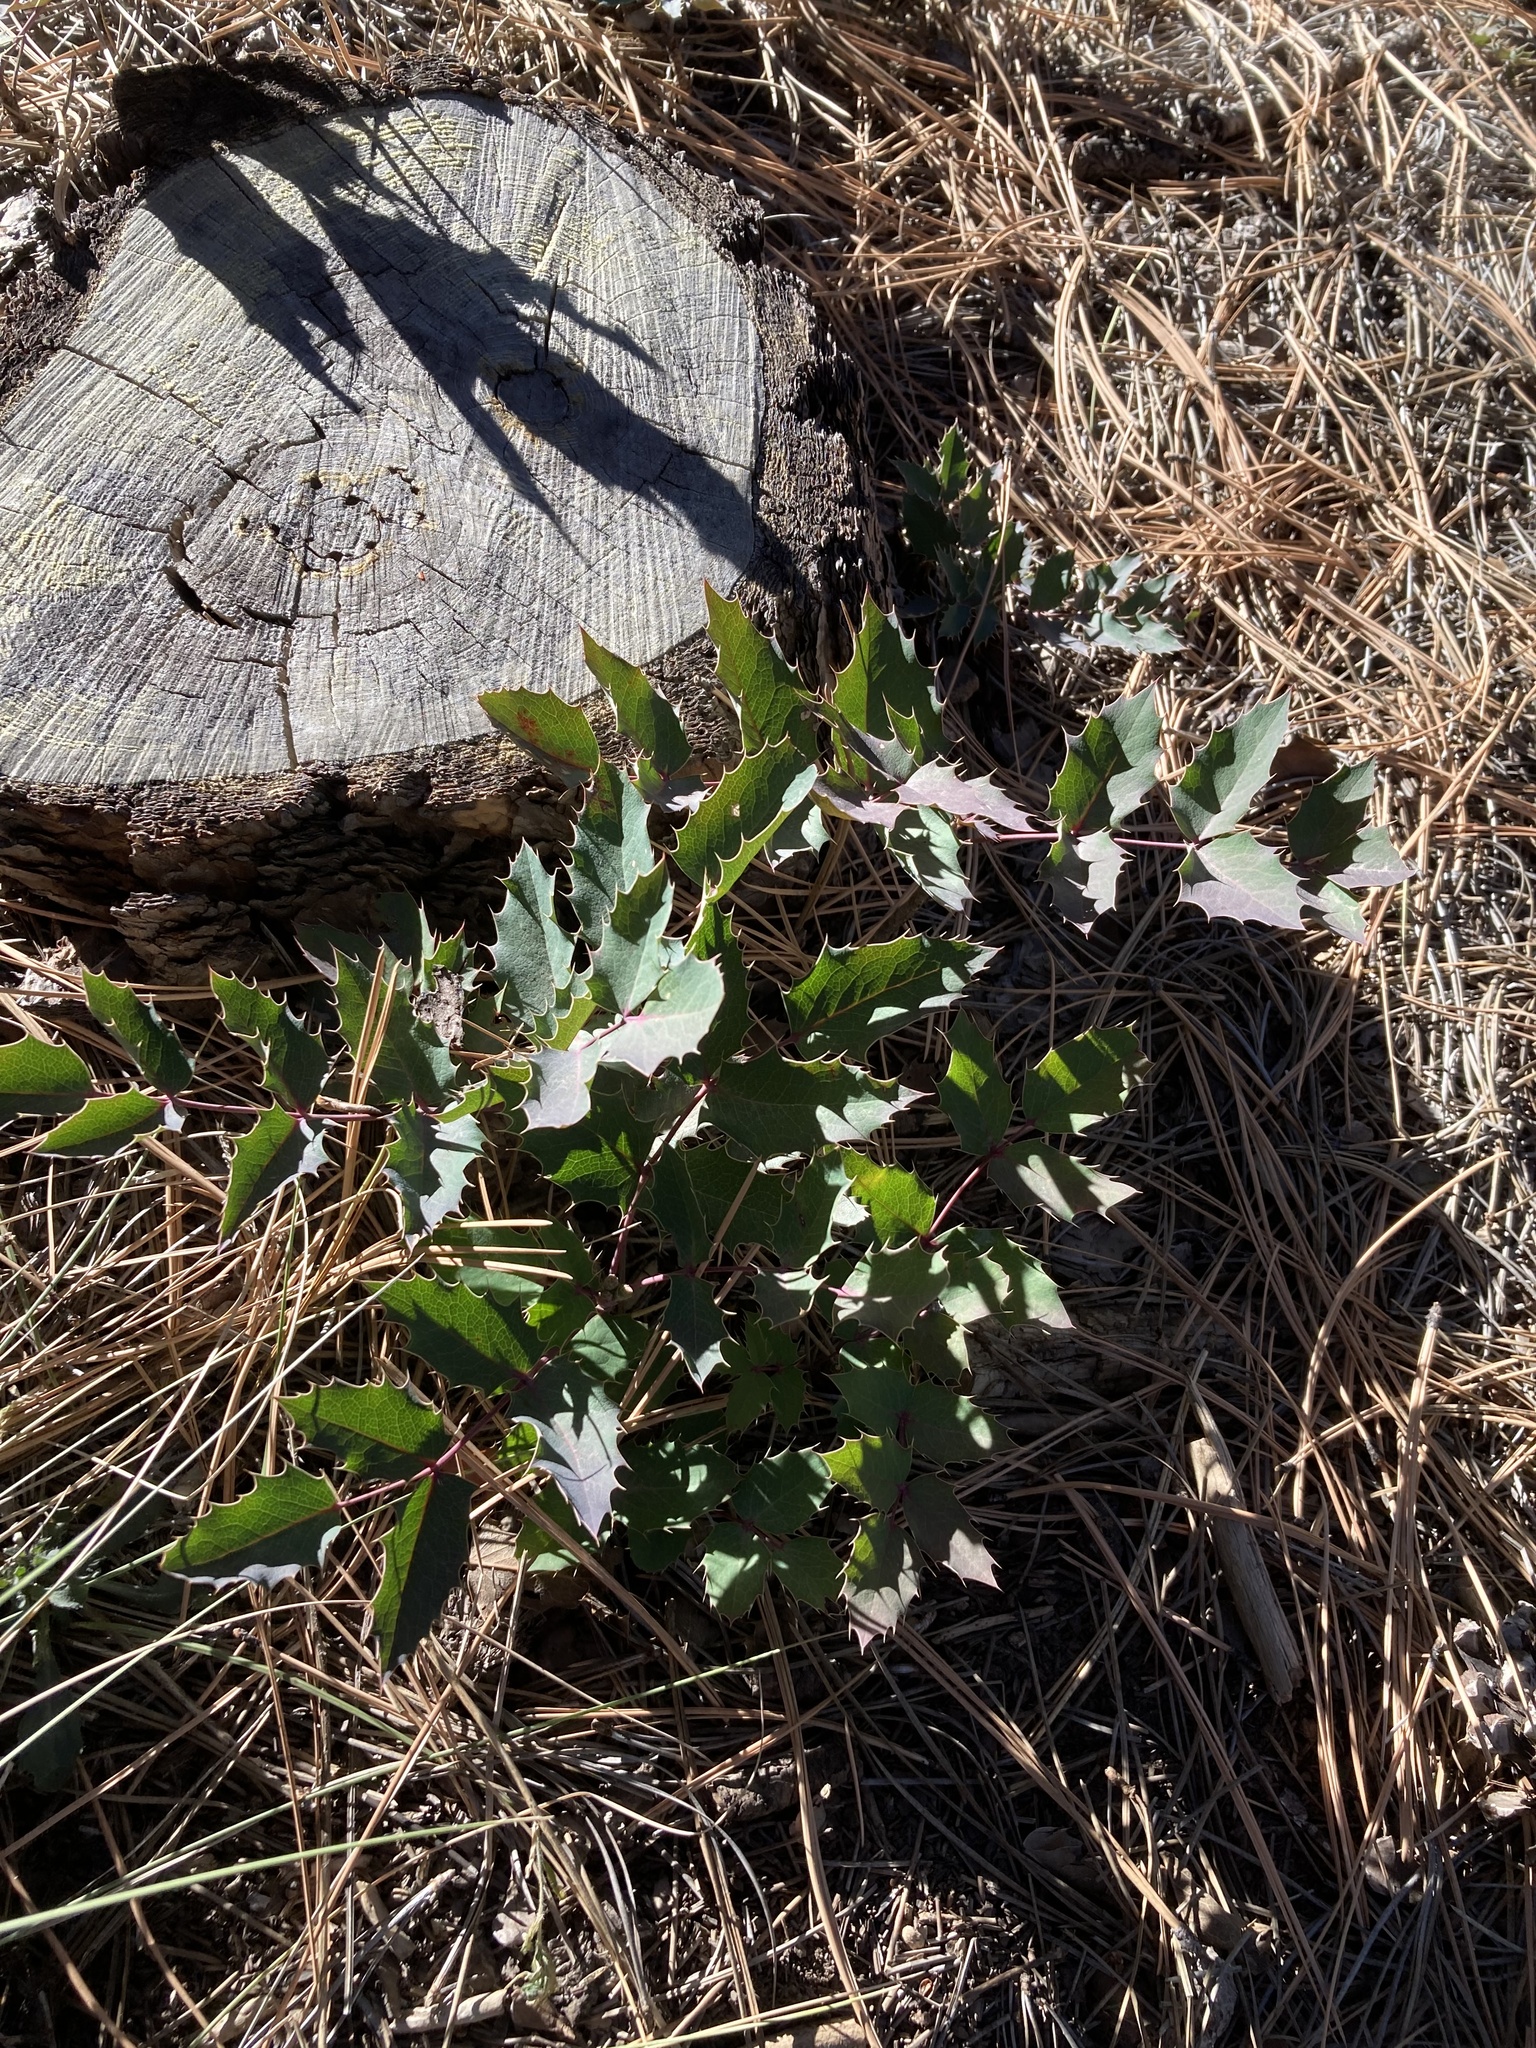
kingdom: Plantae
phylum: Tracheophyta
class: Magnoliopsida
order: Ranunculales
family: Berberidaceae
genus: Mahonia
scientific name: Mahonia repens
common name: Creeping oregon-grape
